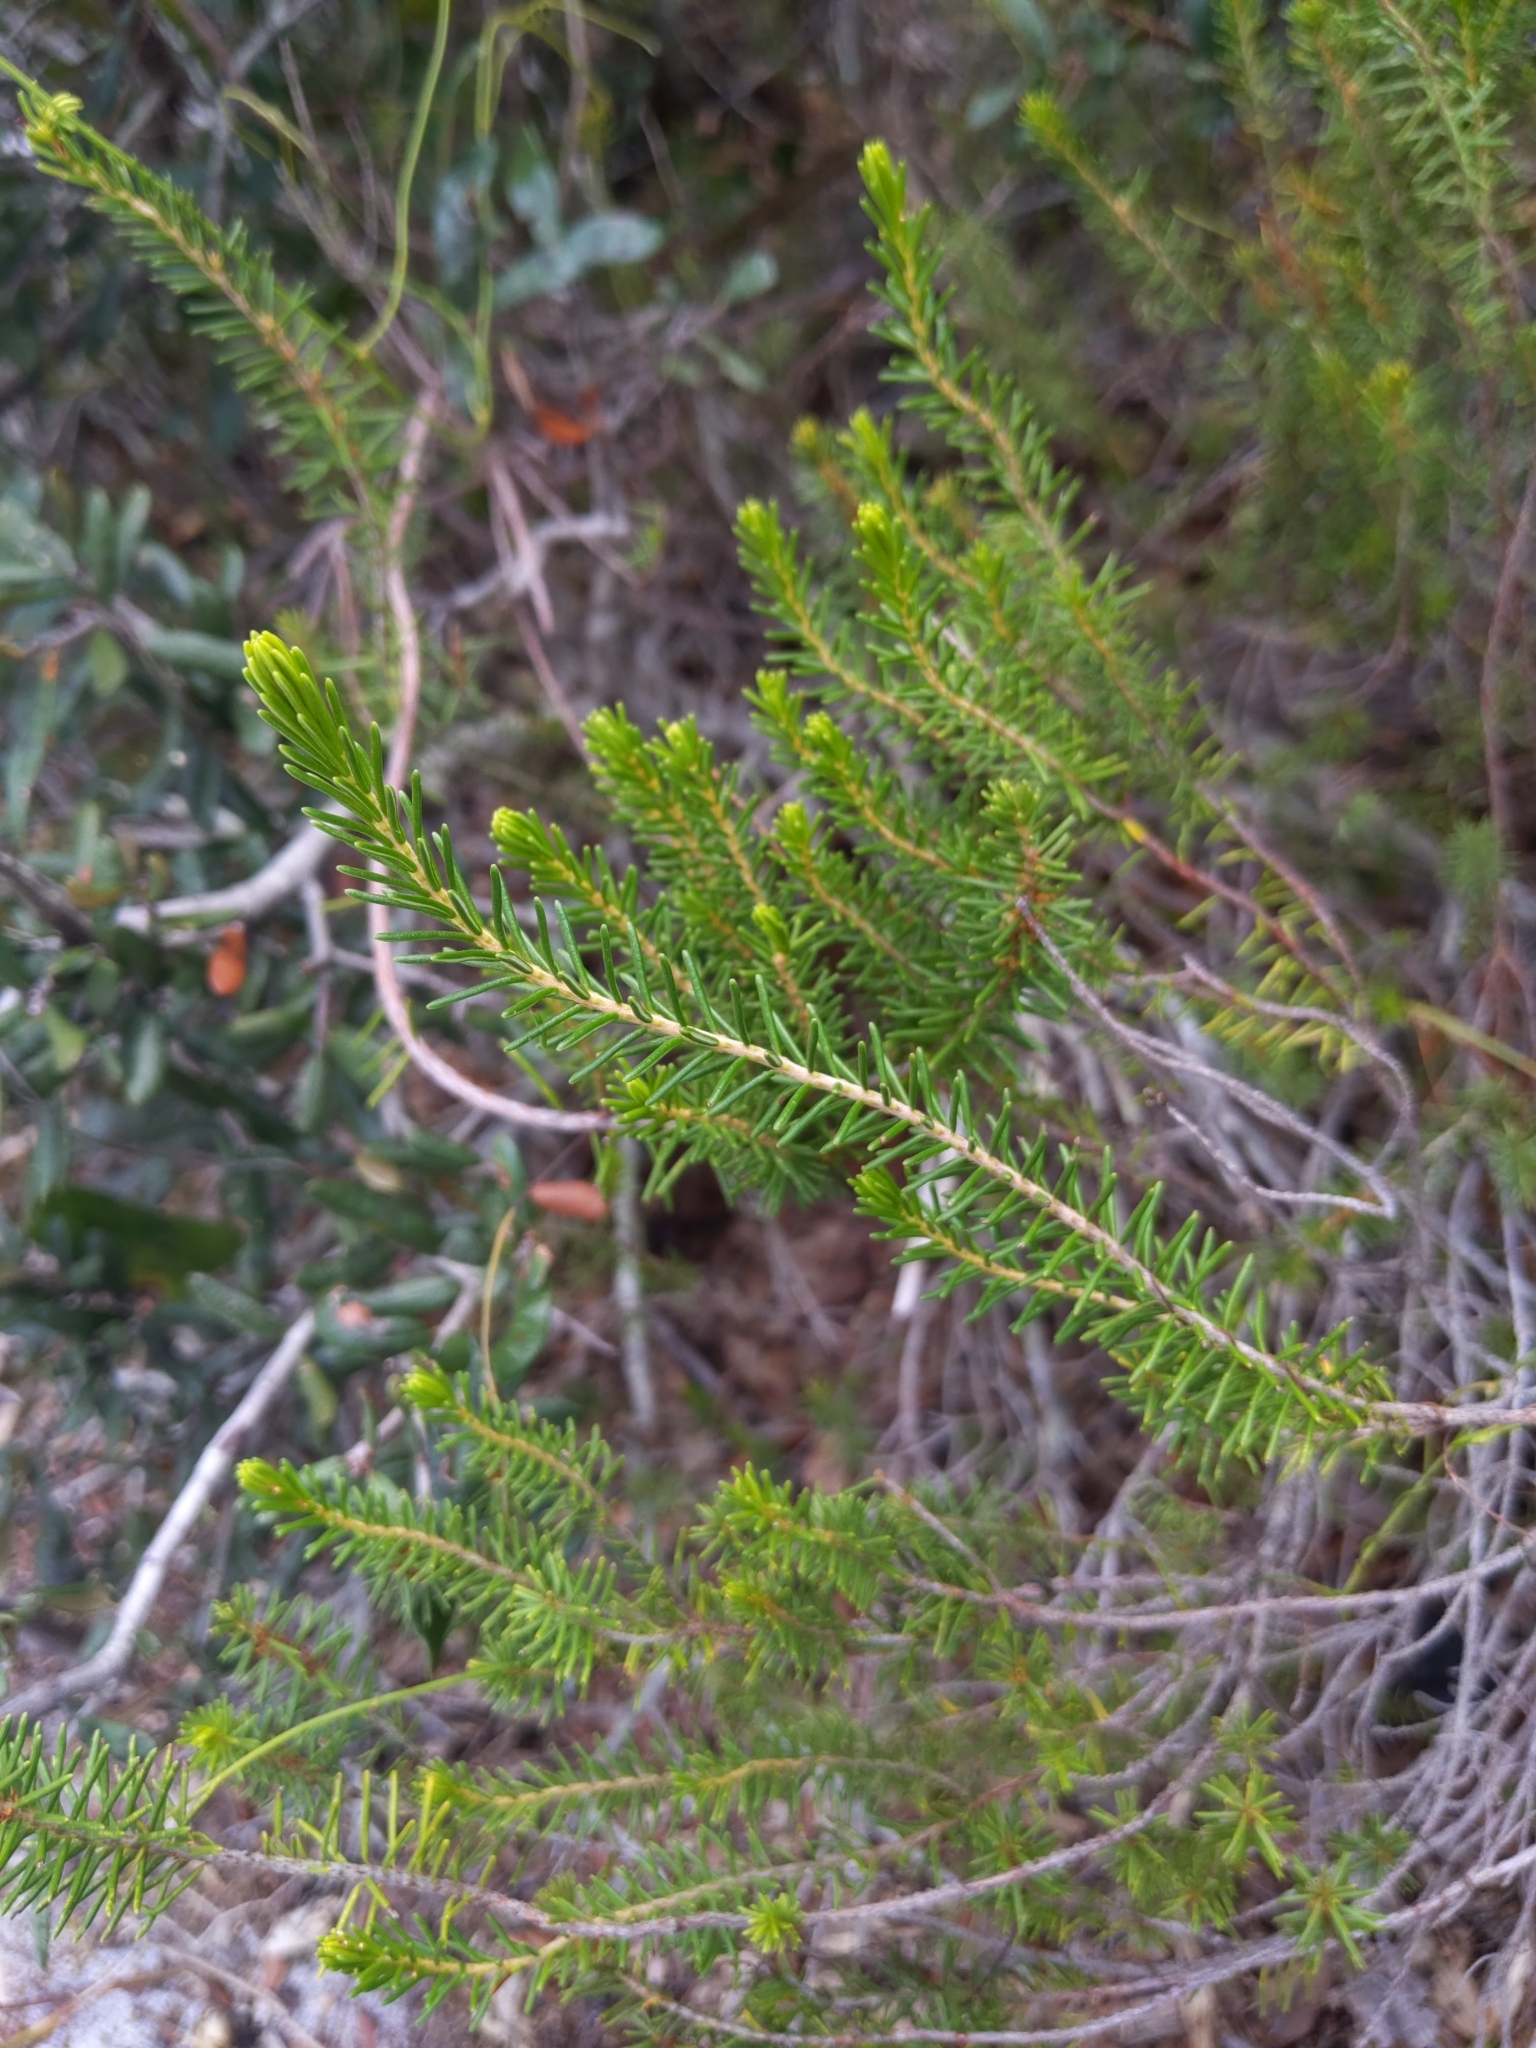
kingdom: Plantae
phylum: Tracheophyta
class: Magnoliopsida
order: Ericales
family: Ericaceae
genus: Ceratiola
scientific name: Ceratiola ericoides
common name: Sandhill-rosemary
